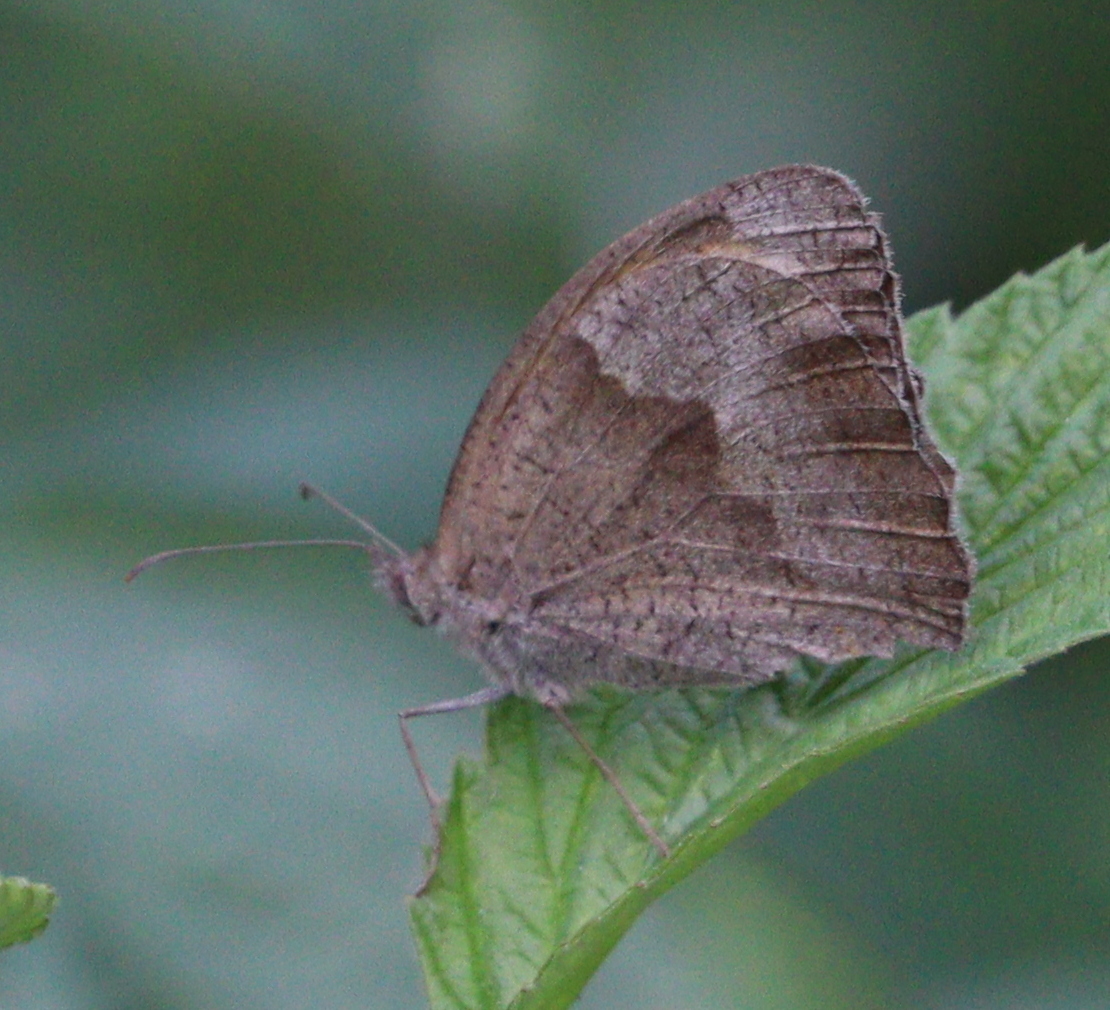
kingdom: Animalia
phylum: Arthropoda
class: Insecta
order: Lepidoptera
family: Nymphalidae
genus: Maniola
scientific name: Maniola jurtina
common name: Meadow brown
